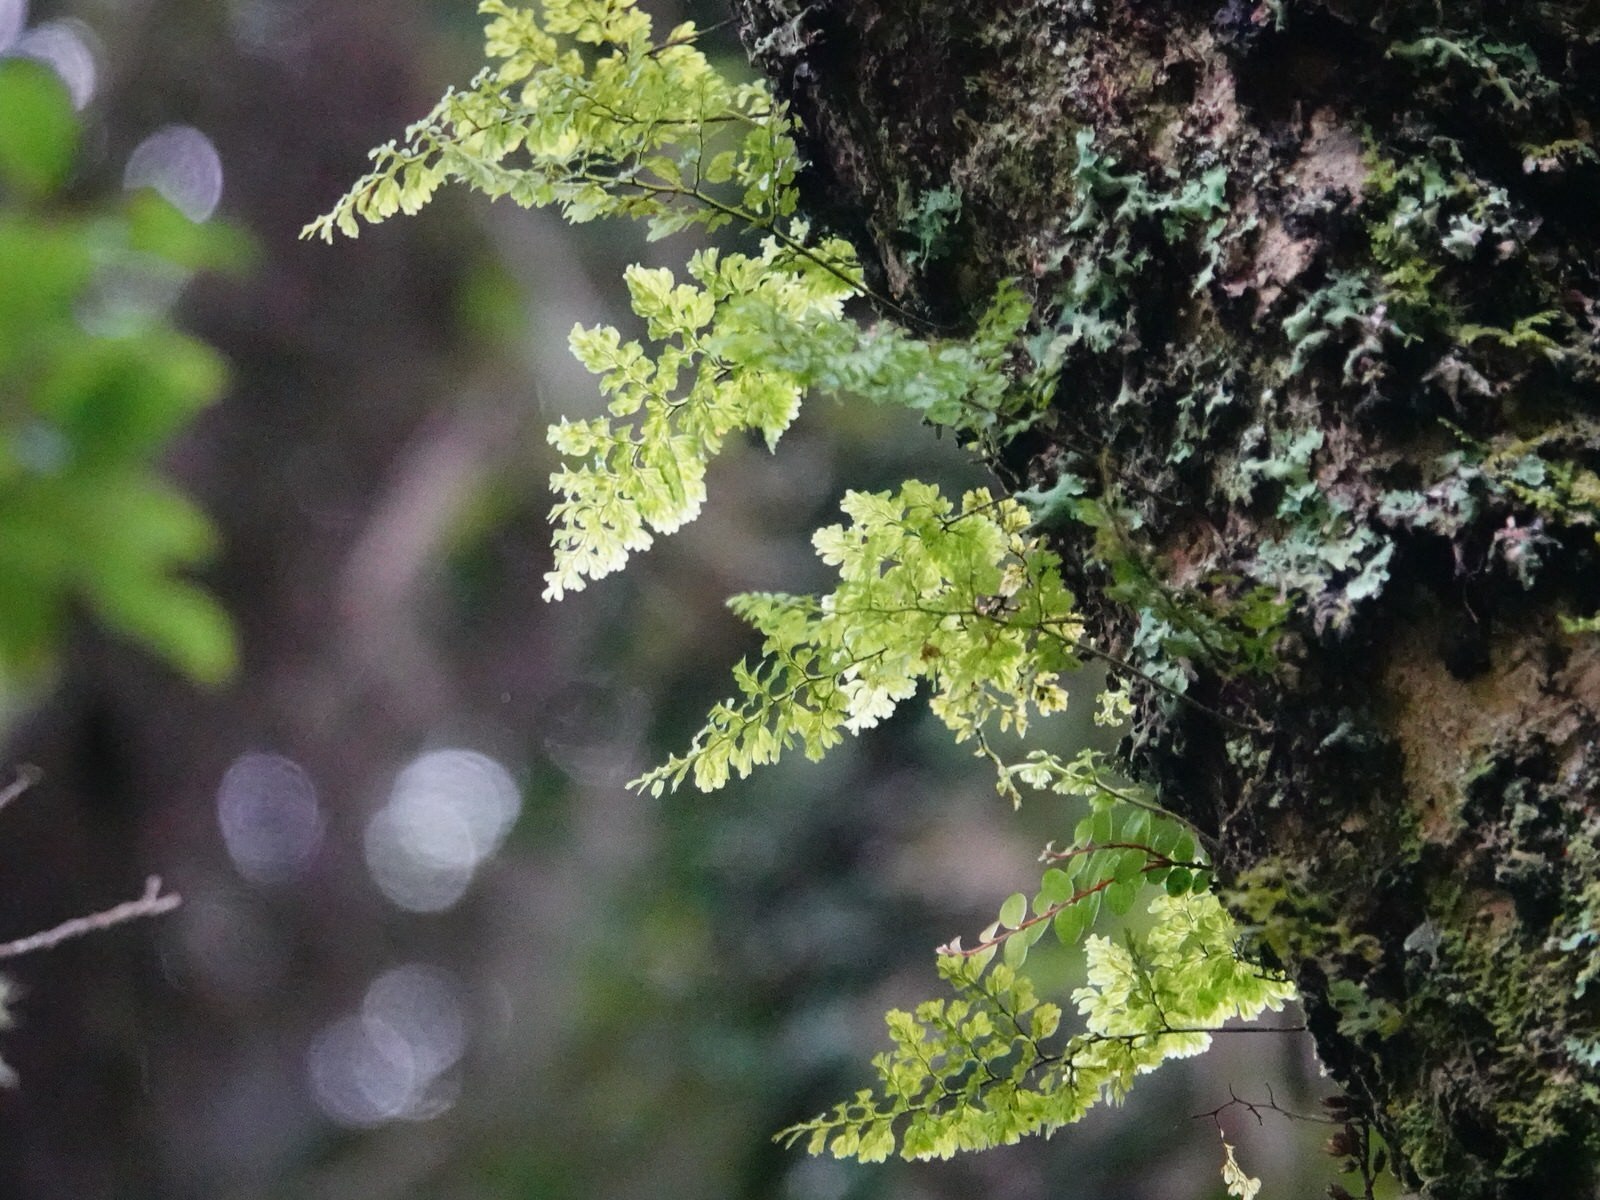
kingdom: Plantae
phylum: Tracheophyta
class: Polypodiopsida
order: Hymenophyllales
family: Hymenophyllaceae
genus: Hymenophyllum
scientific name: Hymenophyllum sanguinolentum
